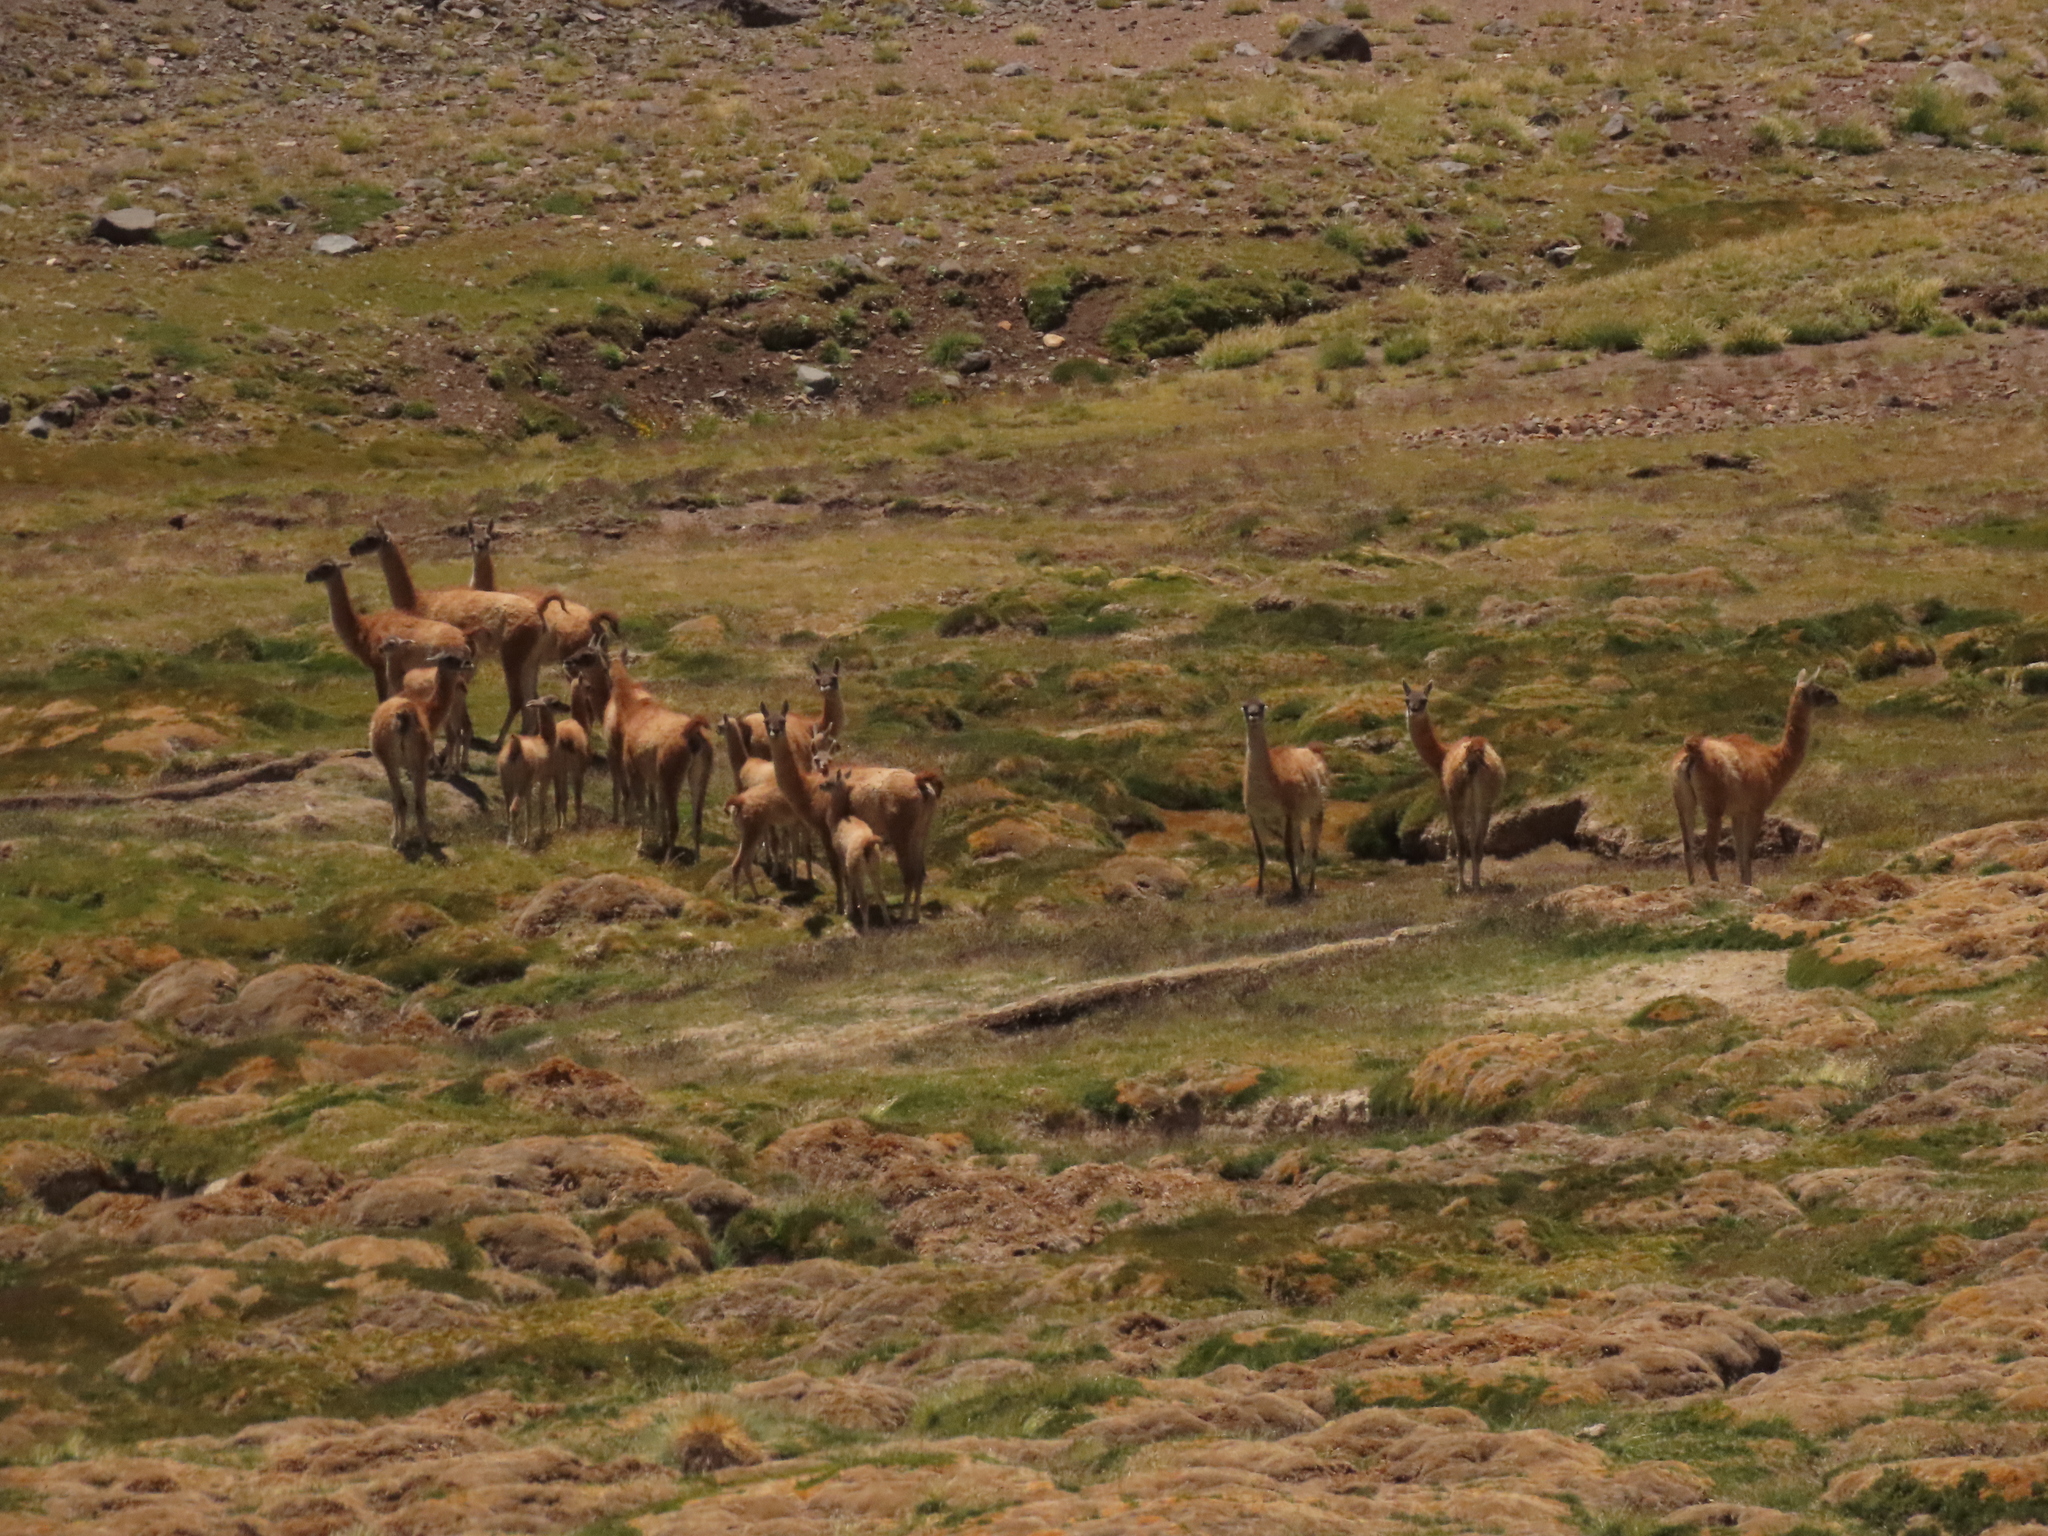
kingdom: Animalia
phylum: Chordata
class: Mammalia
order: Artiodactyla
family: Camelidae
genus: Lama
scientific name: Lama glama
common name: Llama
